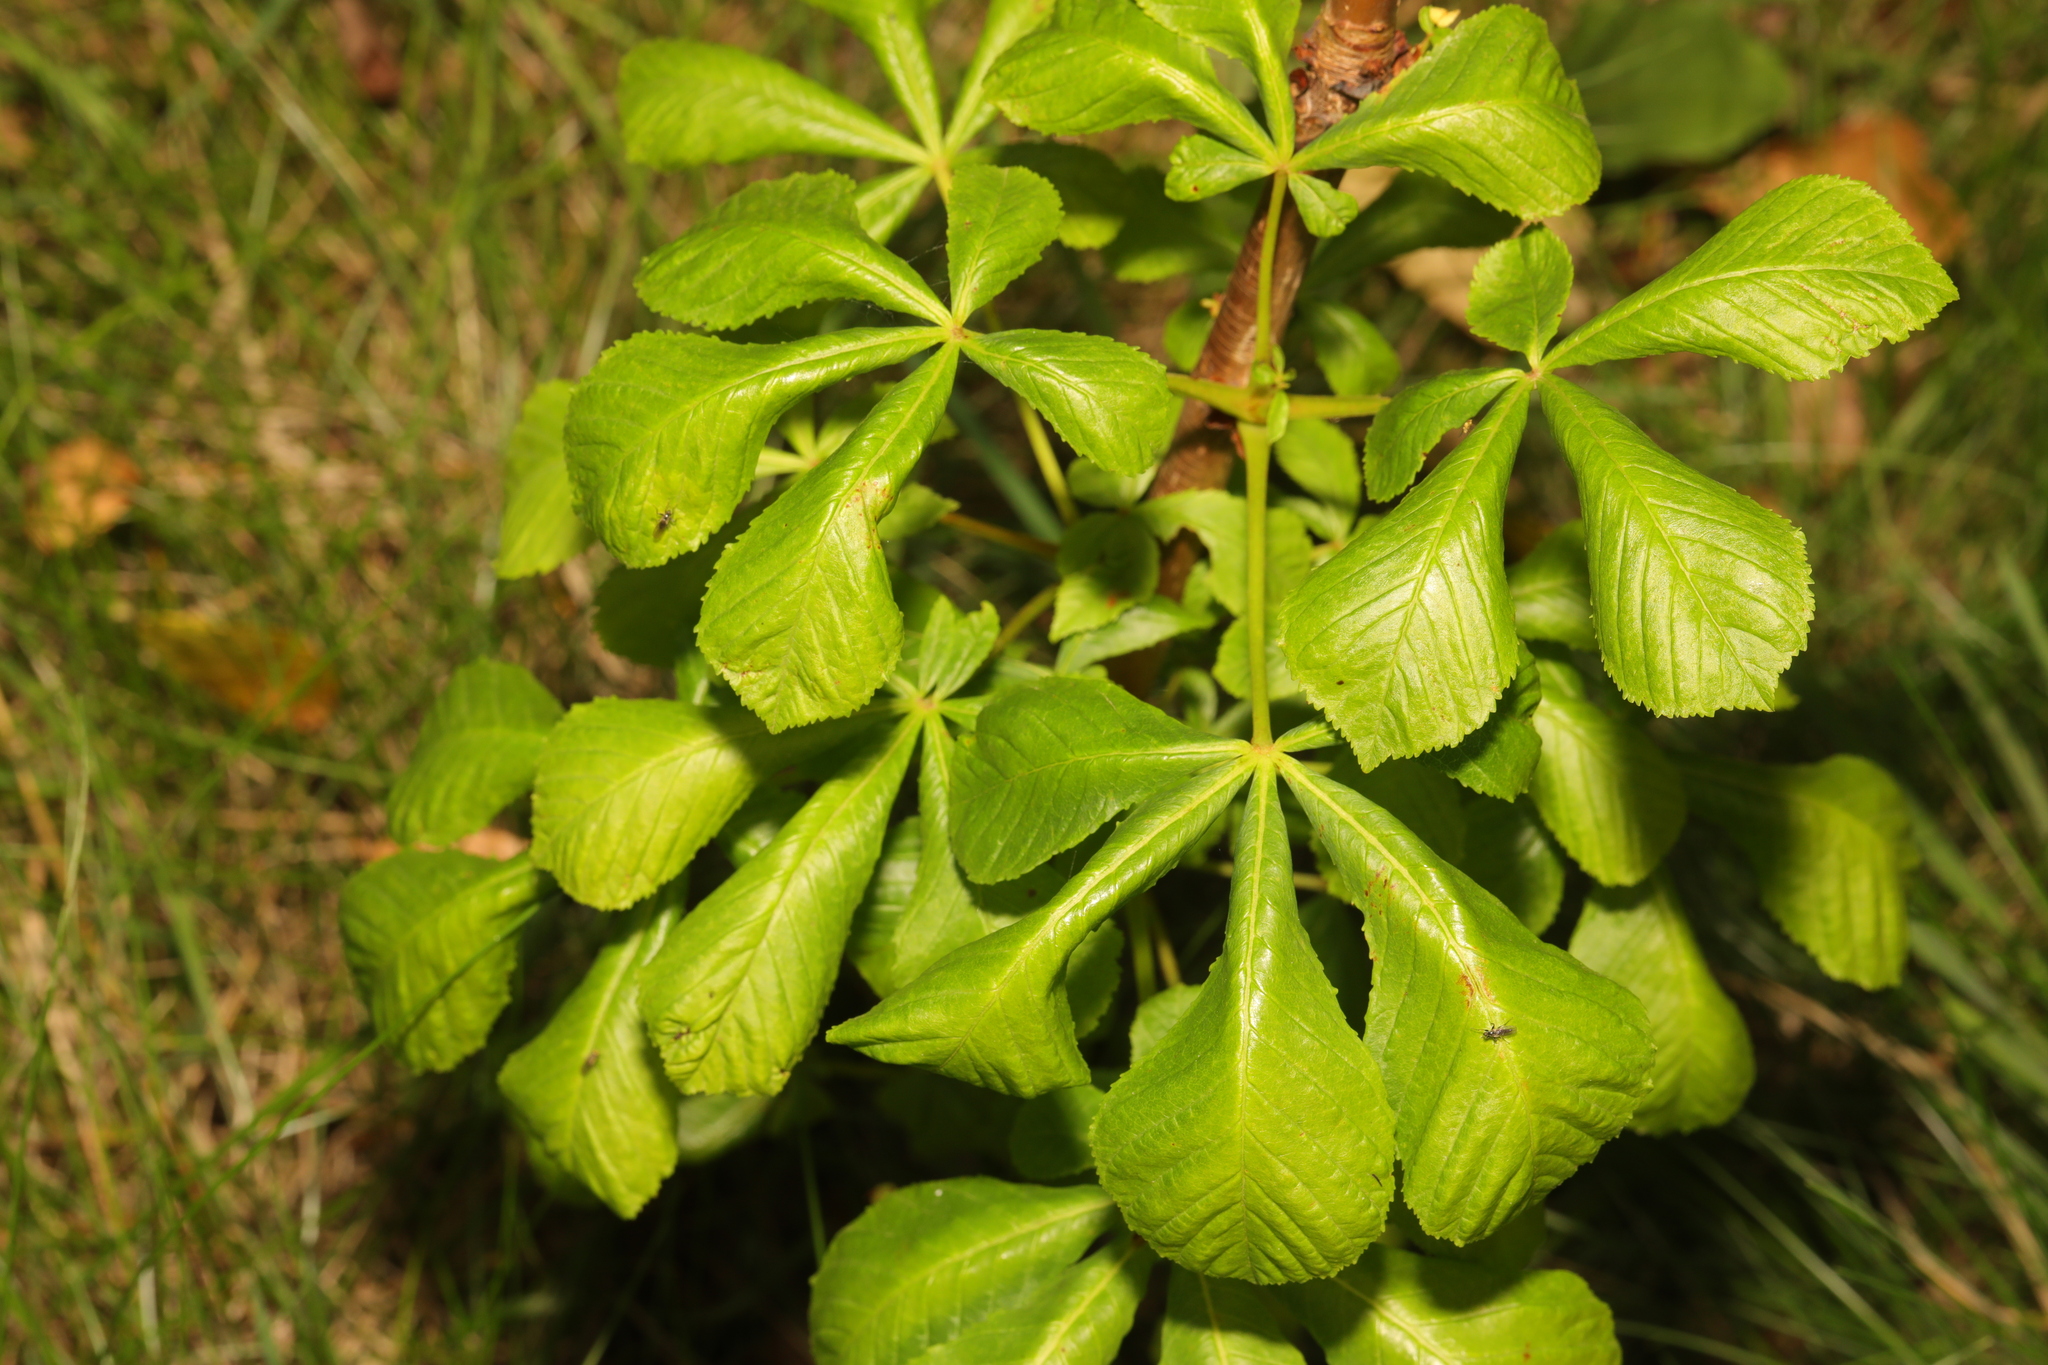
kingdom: Plantae
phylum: Tracheophyta
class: Magnoliopsida
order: Sapindales
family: Sapindaceae
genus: Aesculus
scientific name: Aesculus hippocastanum
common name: Horse-chestnut
